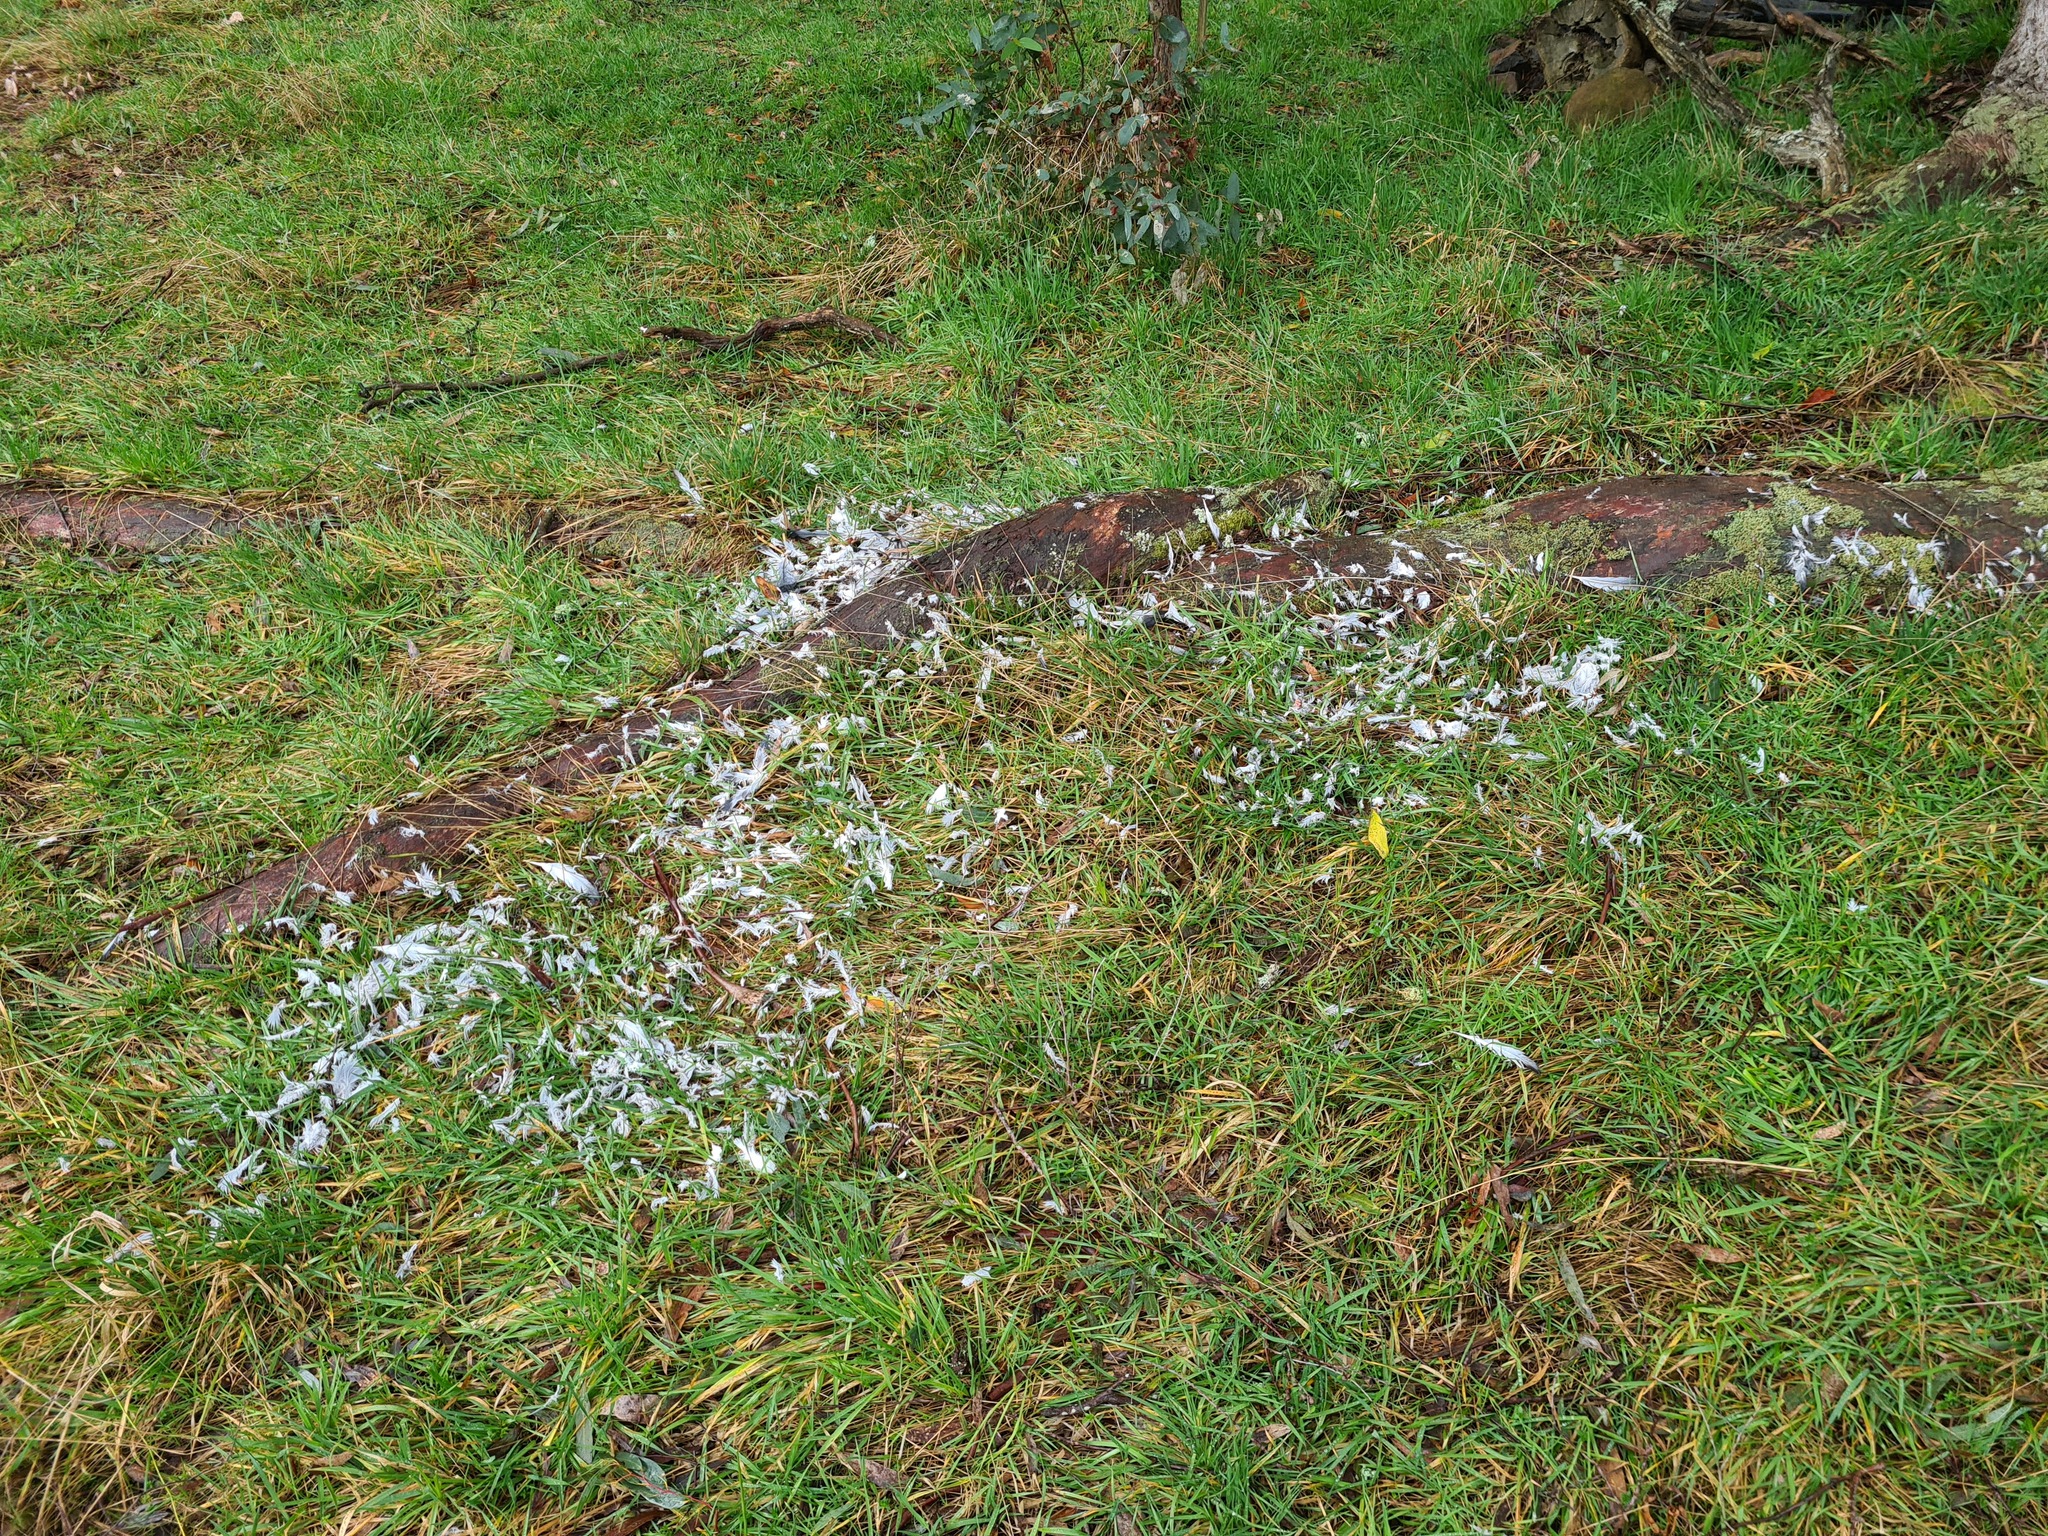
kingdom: Animalia
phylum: Chordata
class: Aves
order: Columbiformes
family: Columbidae
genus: Columba
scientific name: Columba livia
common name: Rock pigeon
